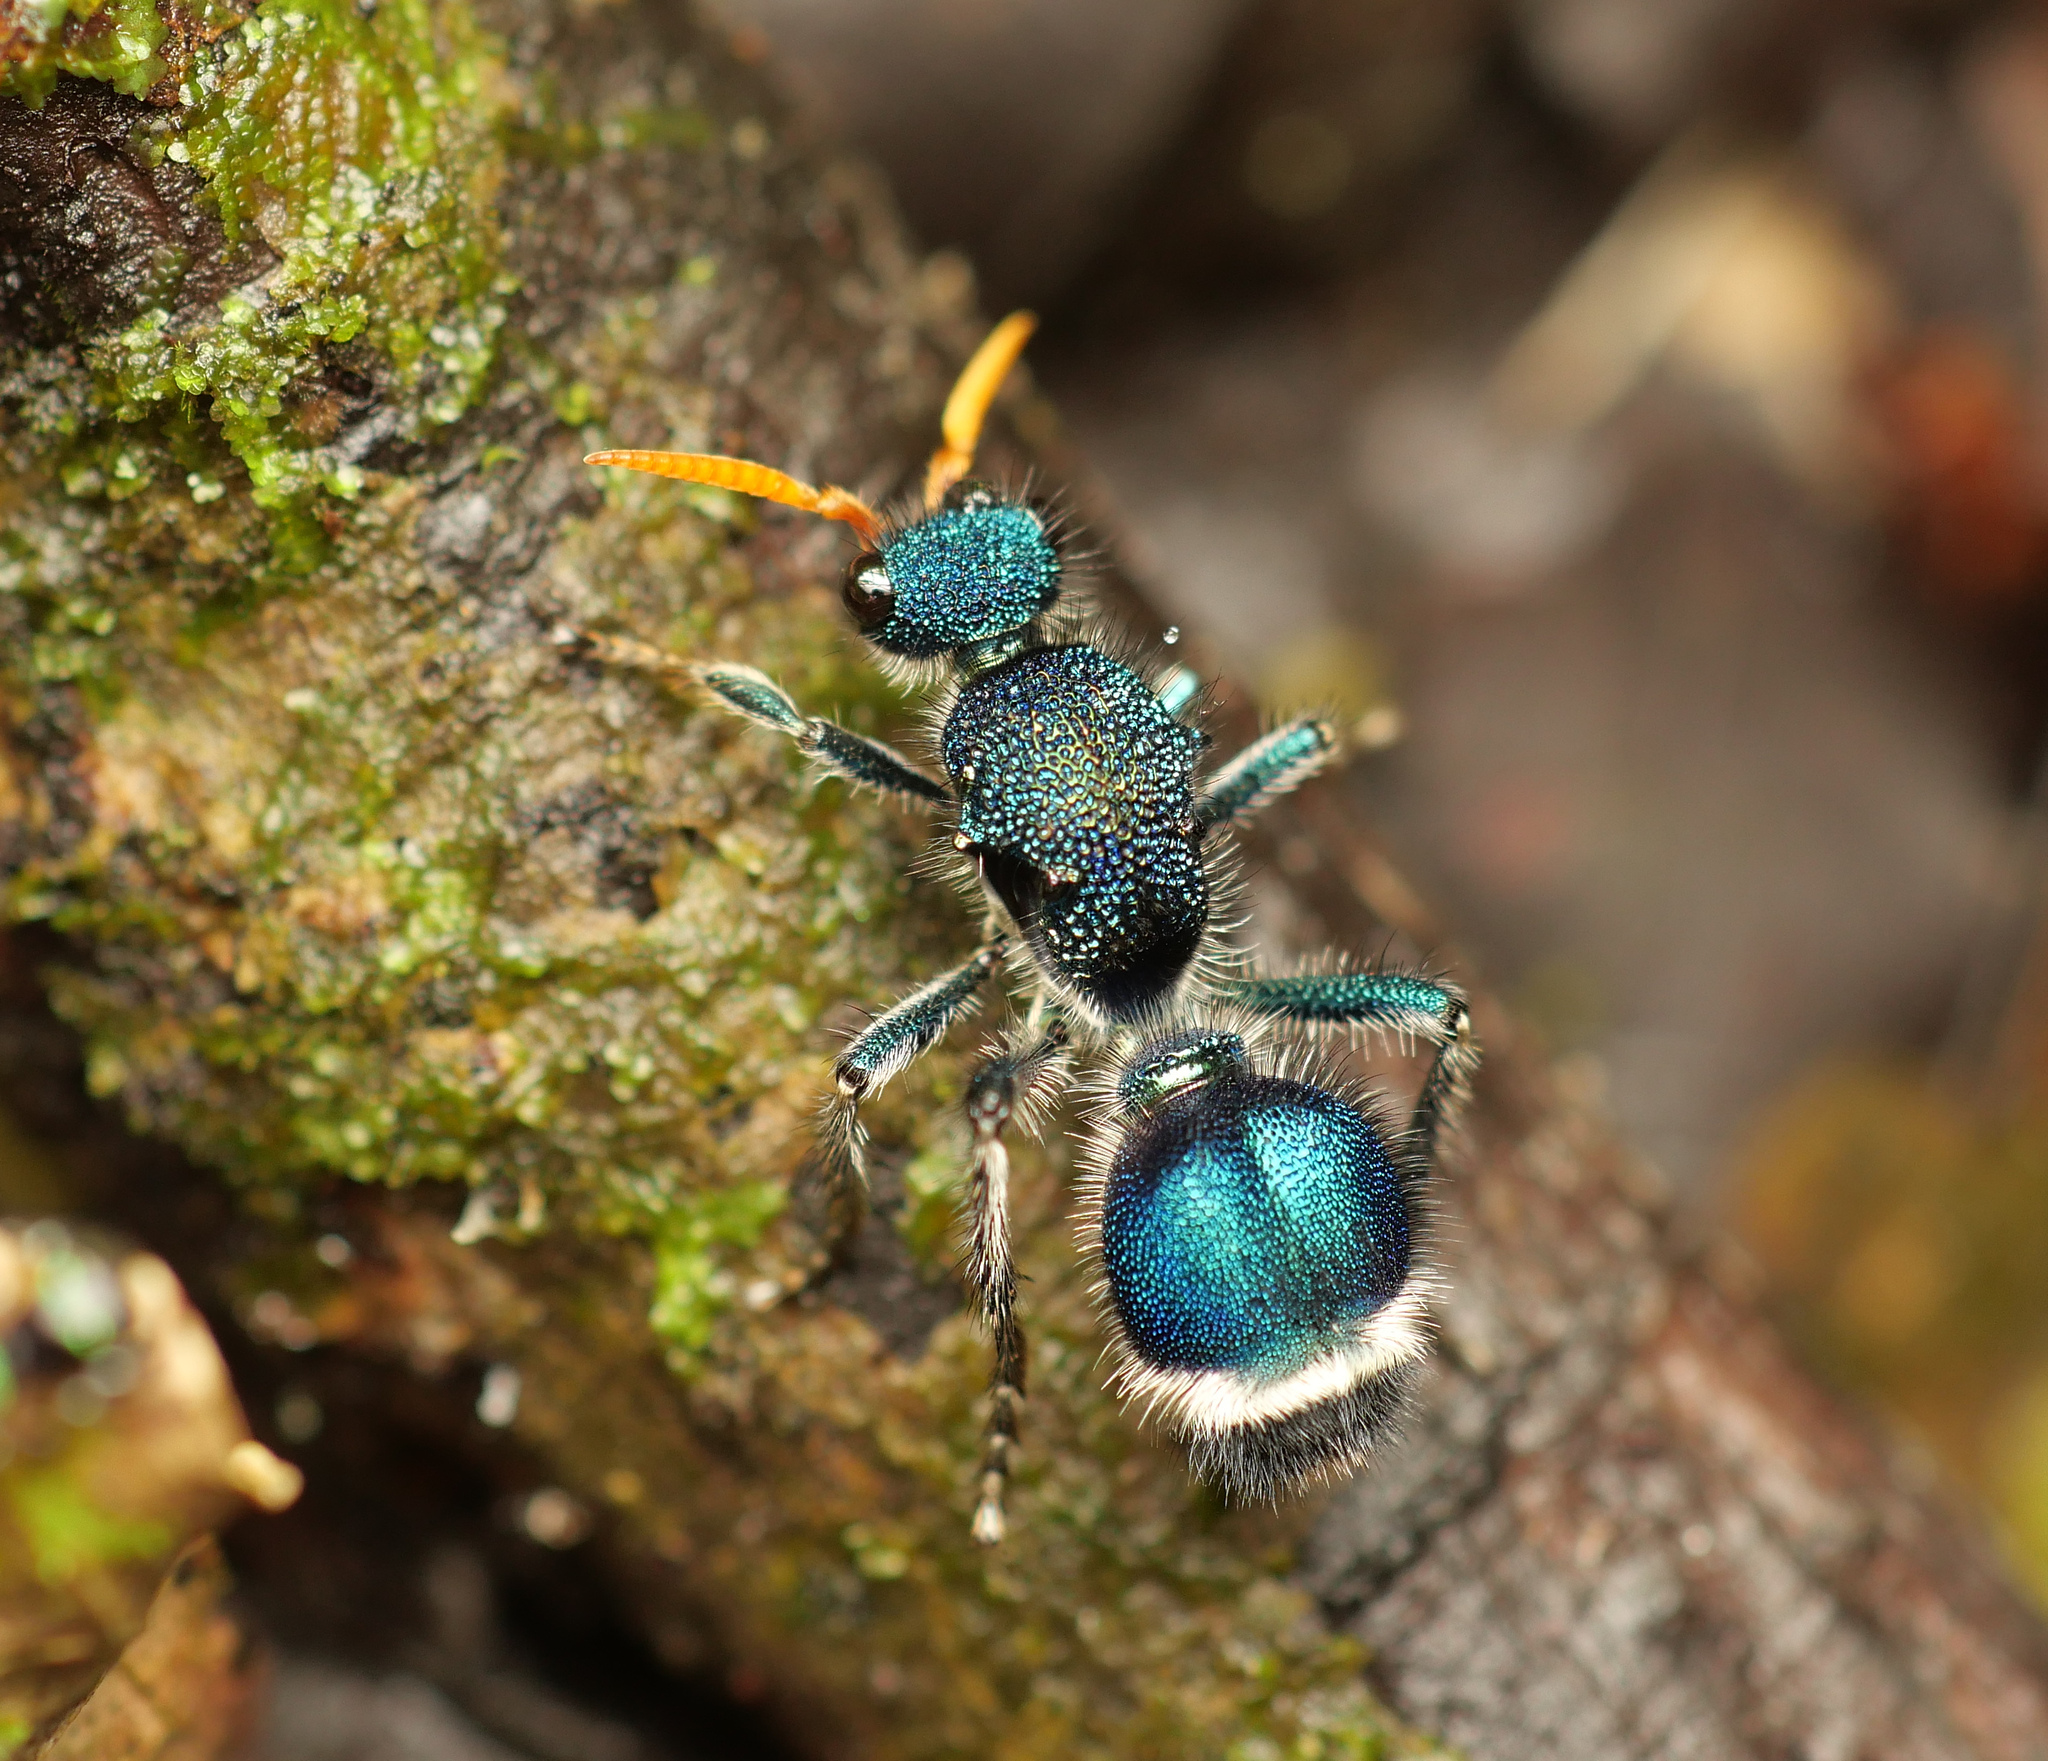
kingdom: Animalia
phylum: Arthropoda
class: Insecta
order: Hymenoptera
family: Mutillidae
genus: Ephutomorpha
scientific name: Ephutomorpha
